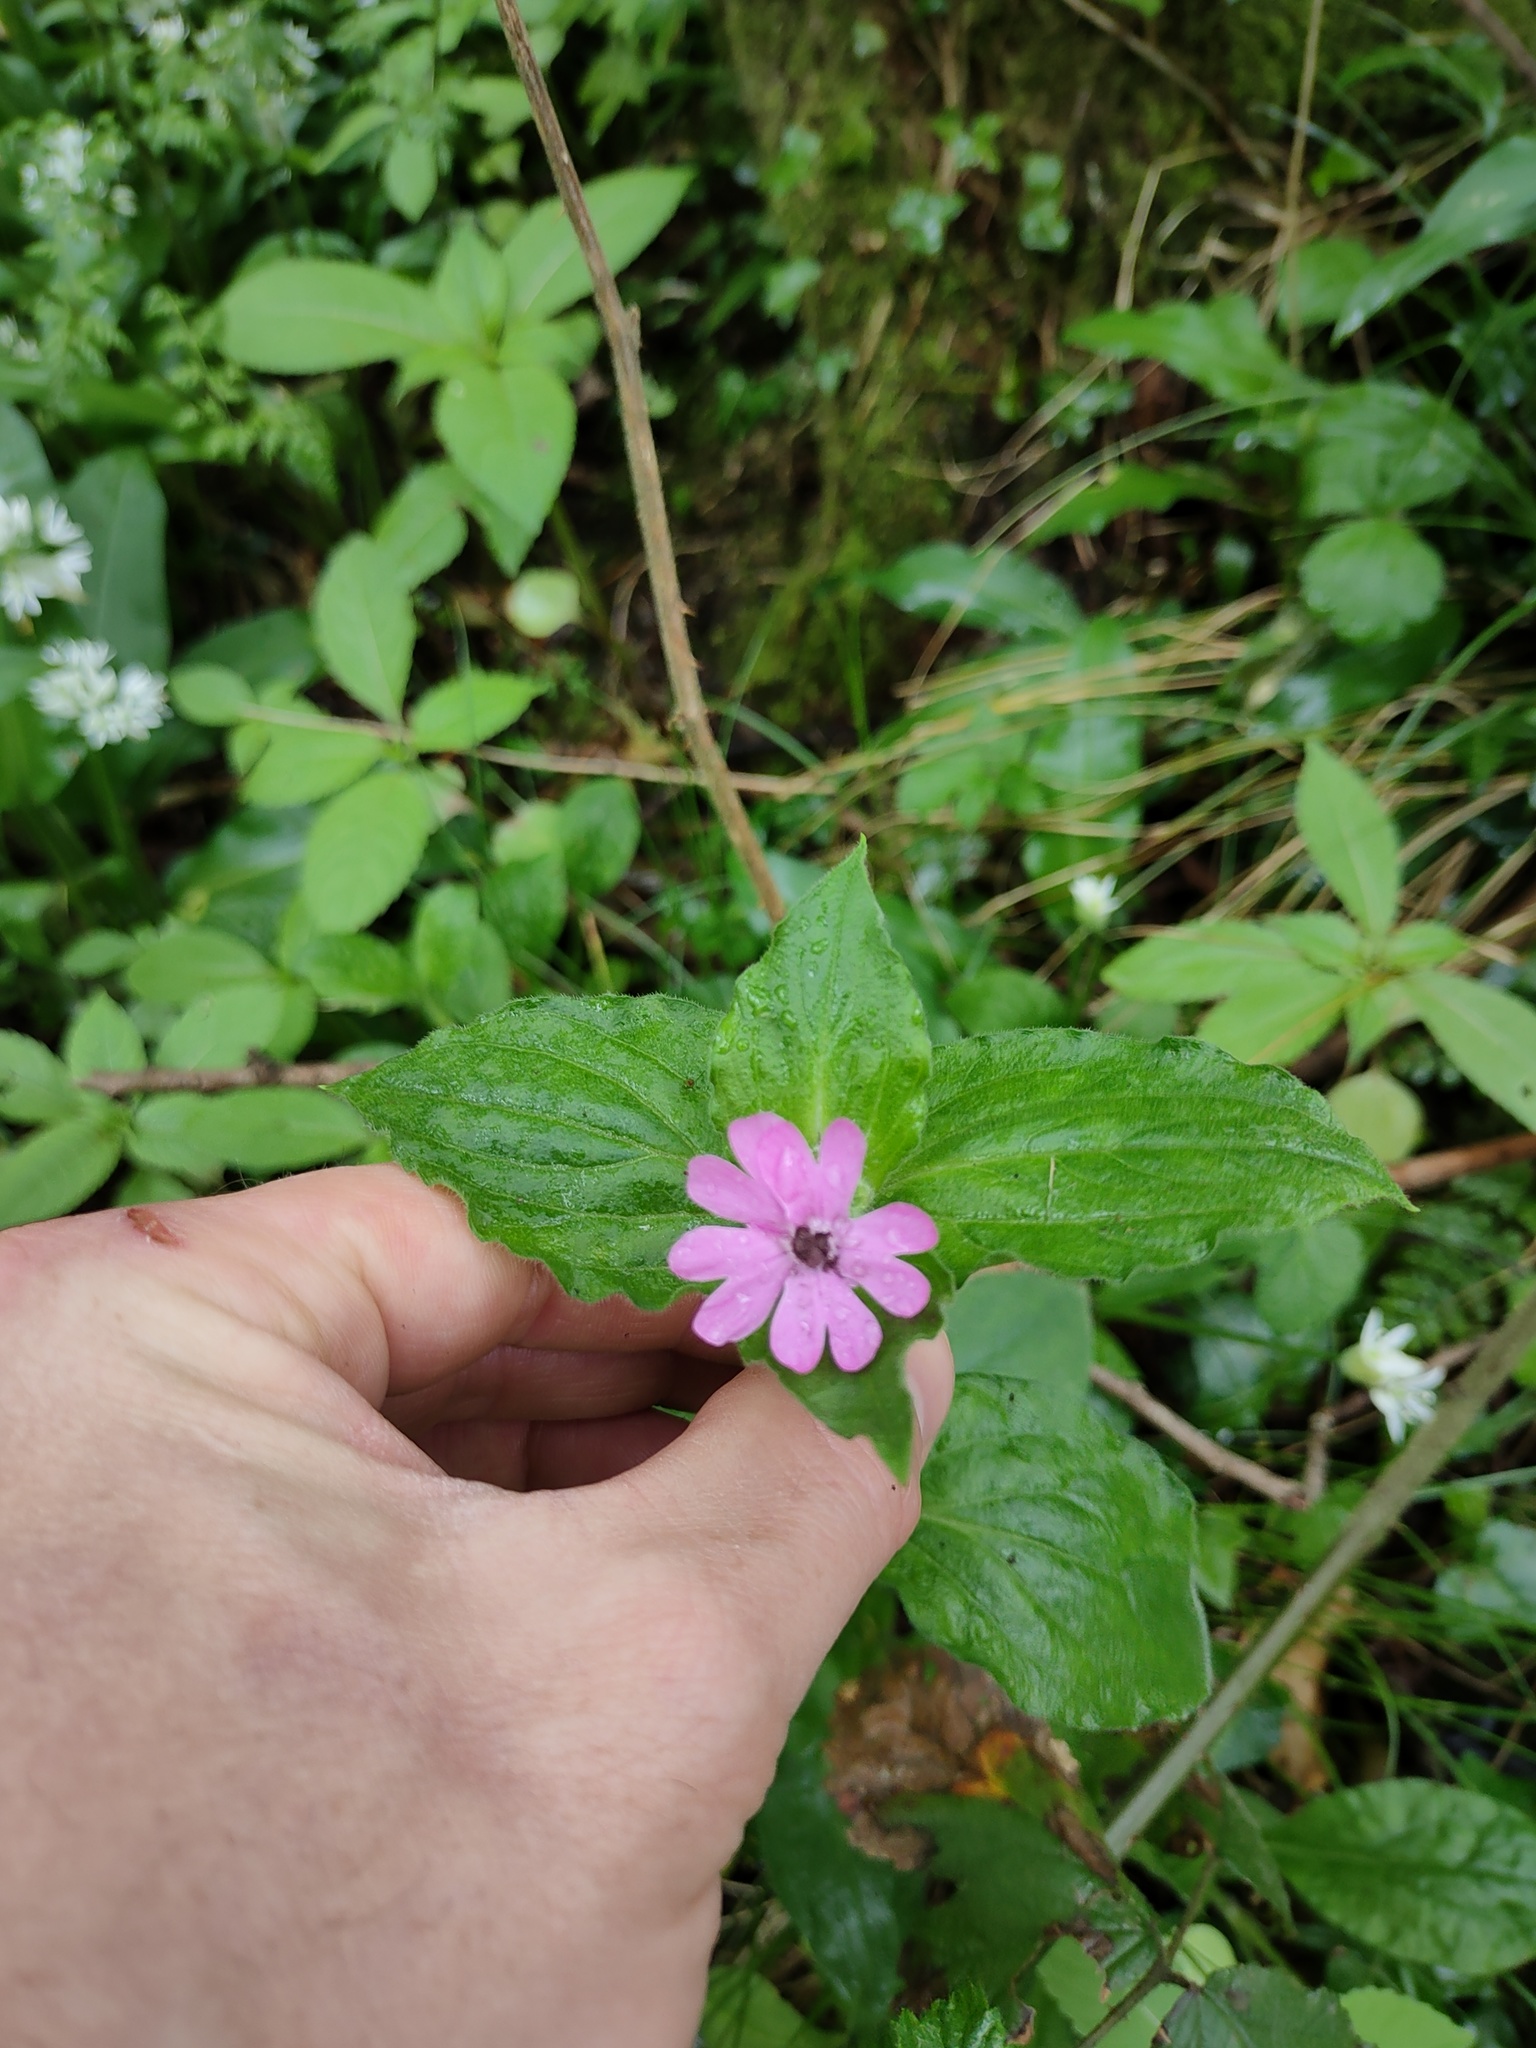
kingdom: Plantae
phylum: Tracheophyta
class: Magnoliopsida
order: Caryophyllales
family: Caryophyllaceae
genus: Silene
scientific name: Silene dioica
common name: Red campion
